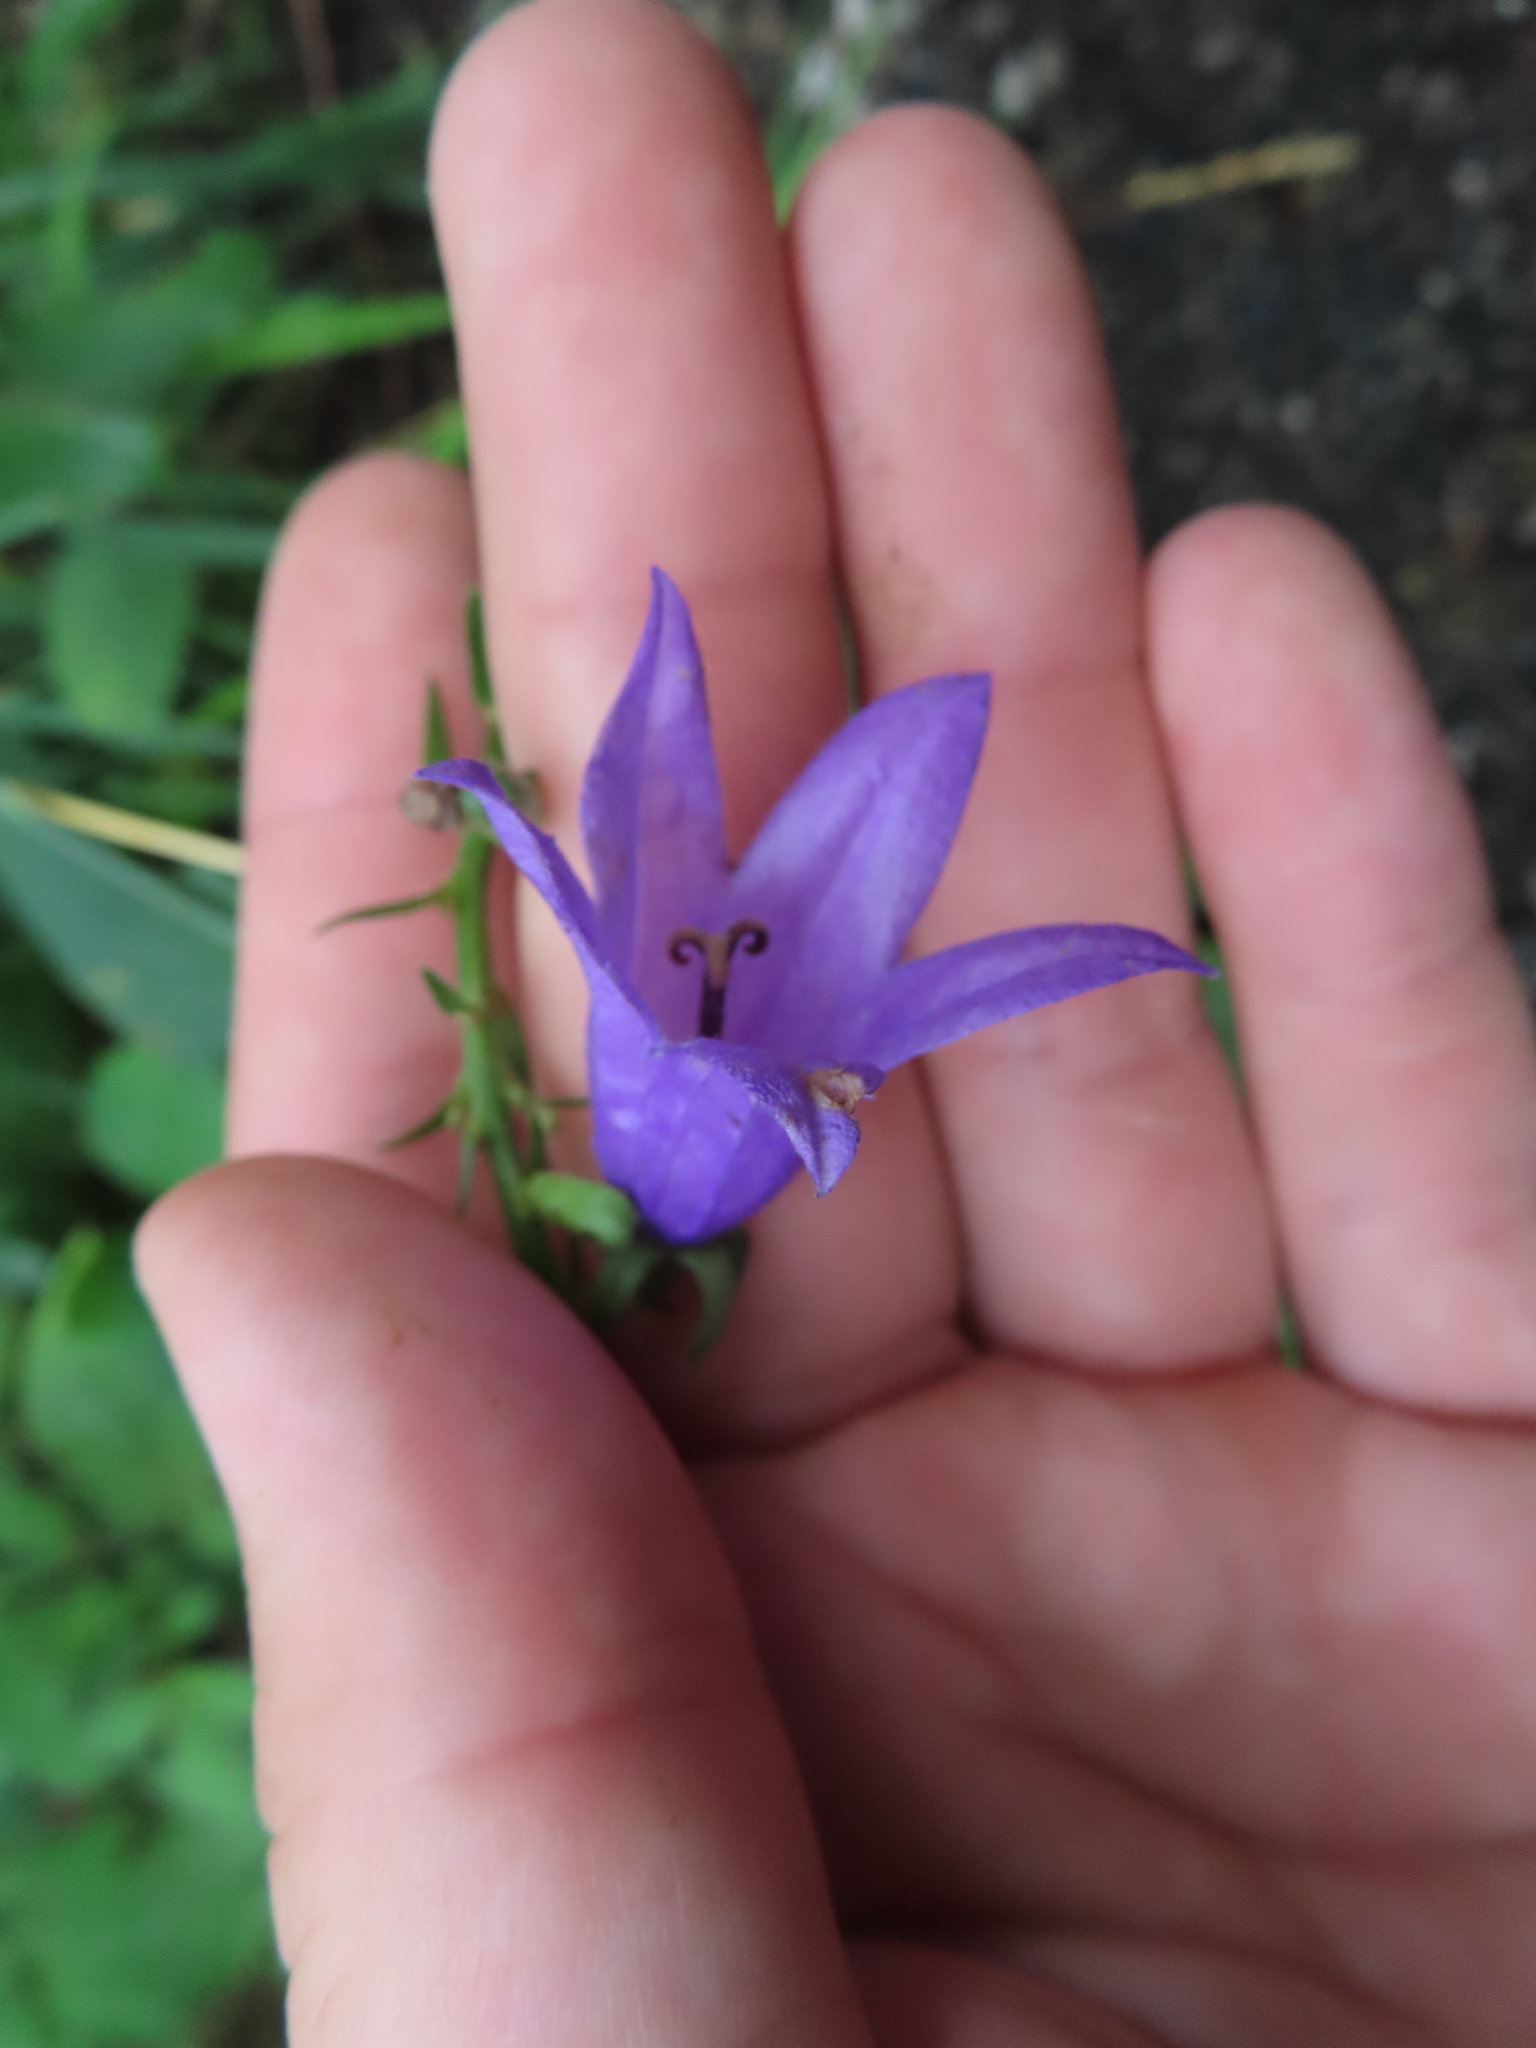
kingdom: Plantae
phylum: Tracheophyta
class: Magnoliopsida
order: Asterales
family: Campanulaceae
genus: Campanula
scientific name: Campanula rapunculoides
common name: Creeping bellflower
